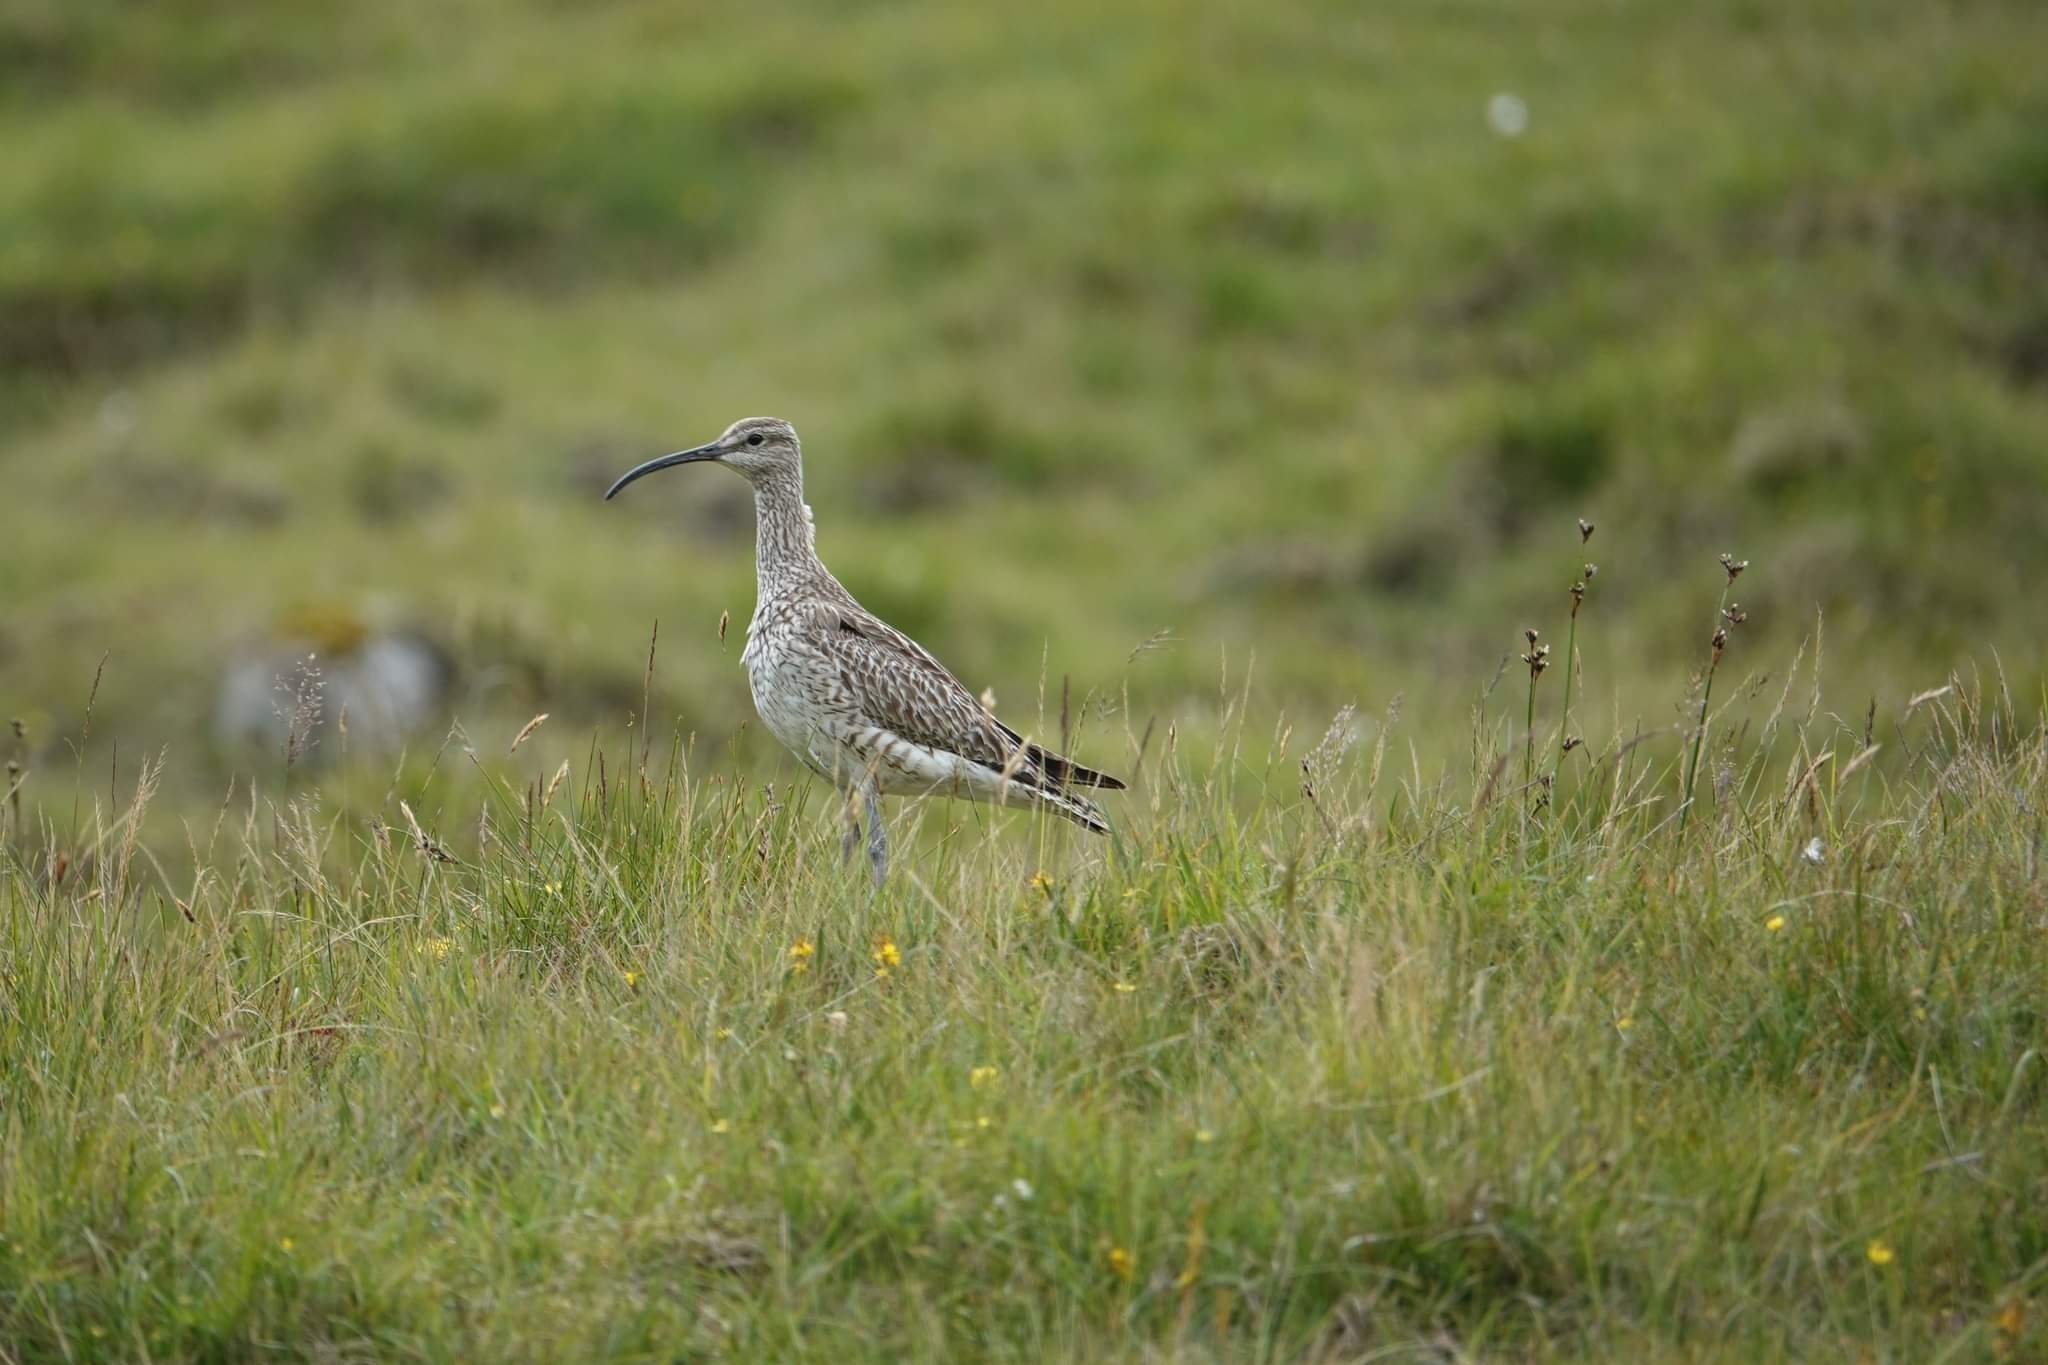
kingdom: Animalia
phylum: Chordata
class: Aves
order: Charadriiformes
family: Scolopacidae
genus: Numenius
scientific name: Numenius phaeopus
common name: Whimbrel
